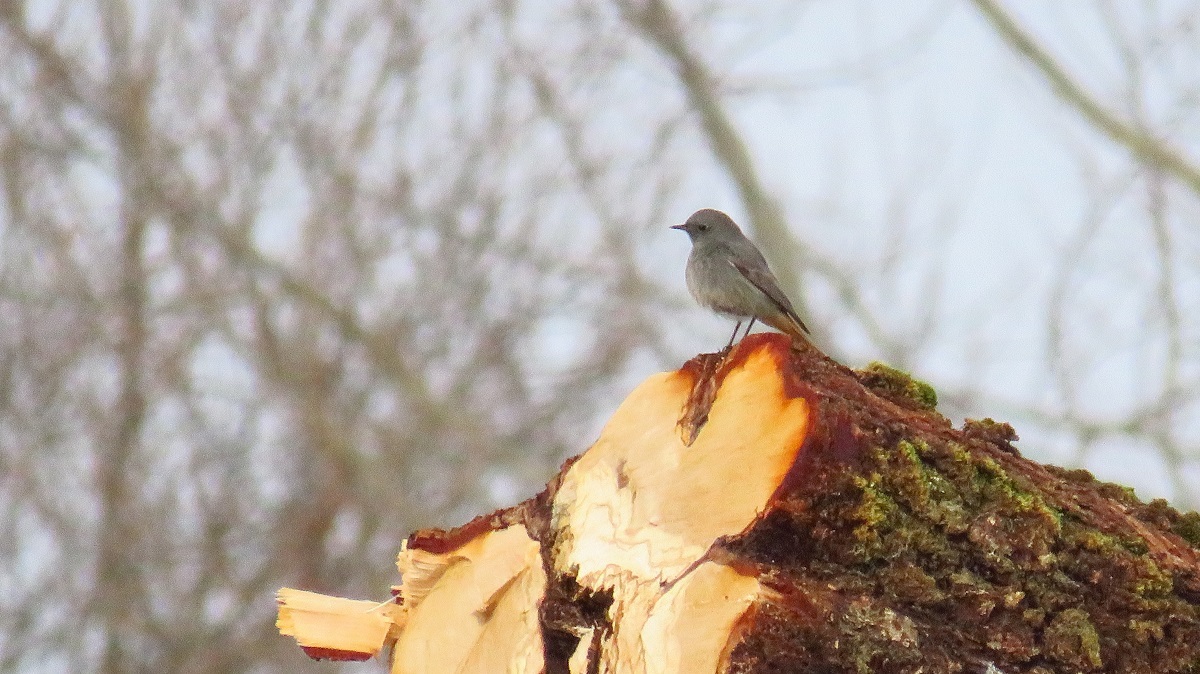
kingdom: Animalia
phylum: Chordata
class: Aves
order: Passeriformes
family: Muscicapidae
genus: Phoenicurus
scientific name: Phoenicurus ochruros
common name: Black redstart
